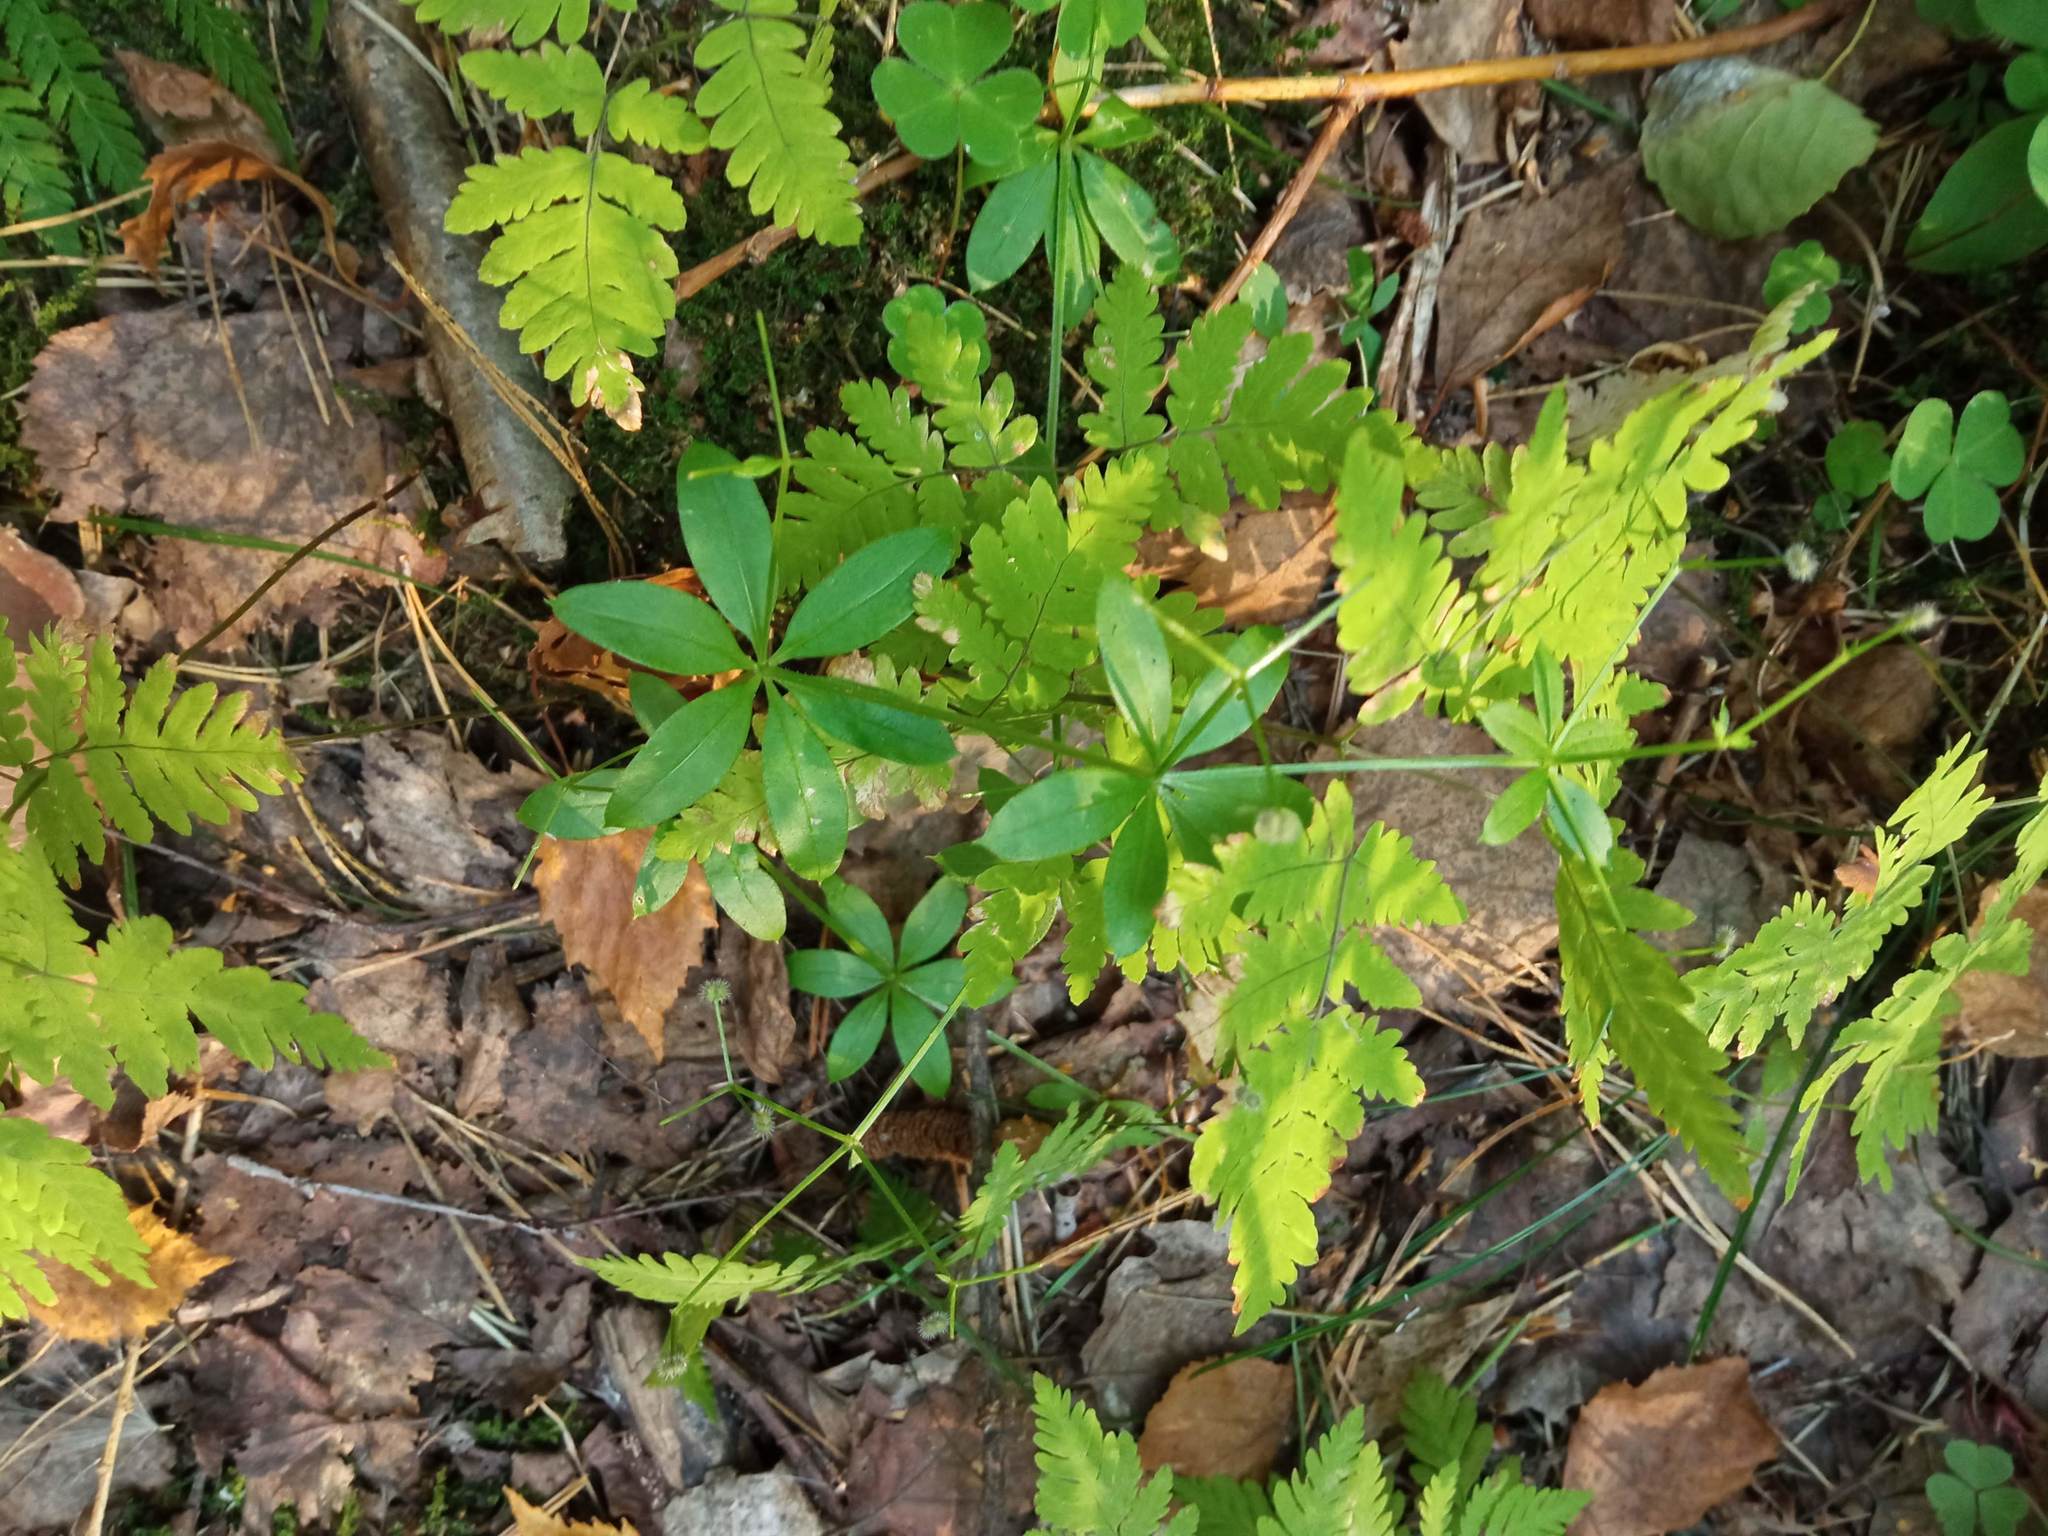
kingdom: Plantae
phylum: Tracheophyta
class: Magnoliopsida
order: Gentianales
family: Rubiaceae
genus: Galium
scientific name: Galium triflorum
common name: Fragrant bedstraw
